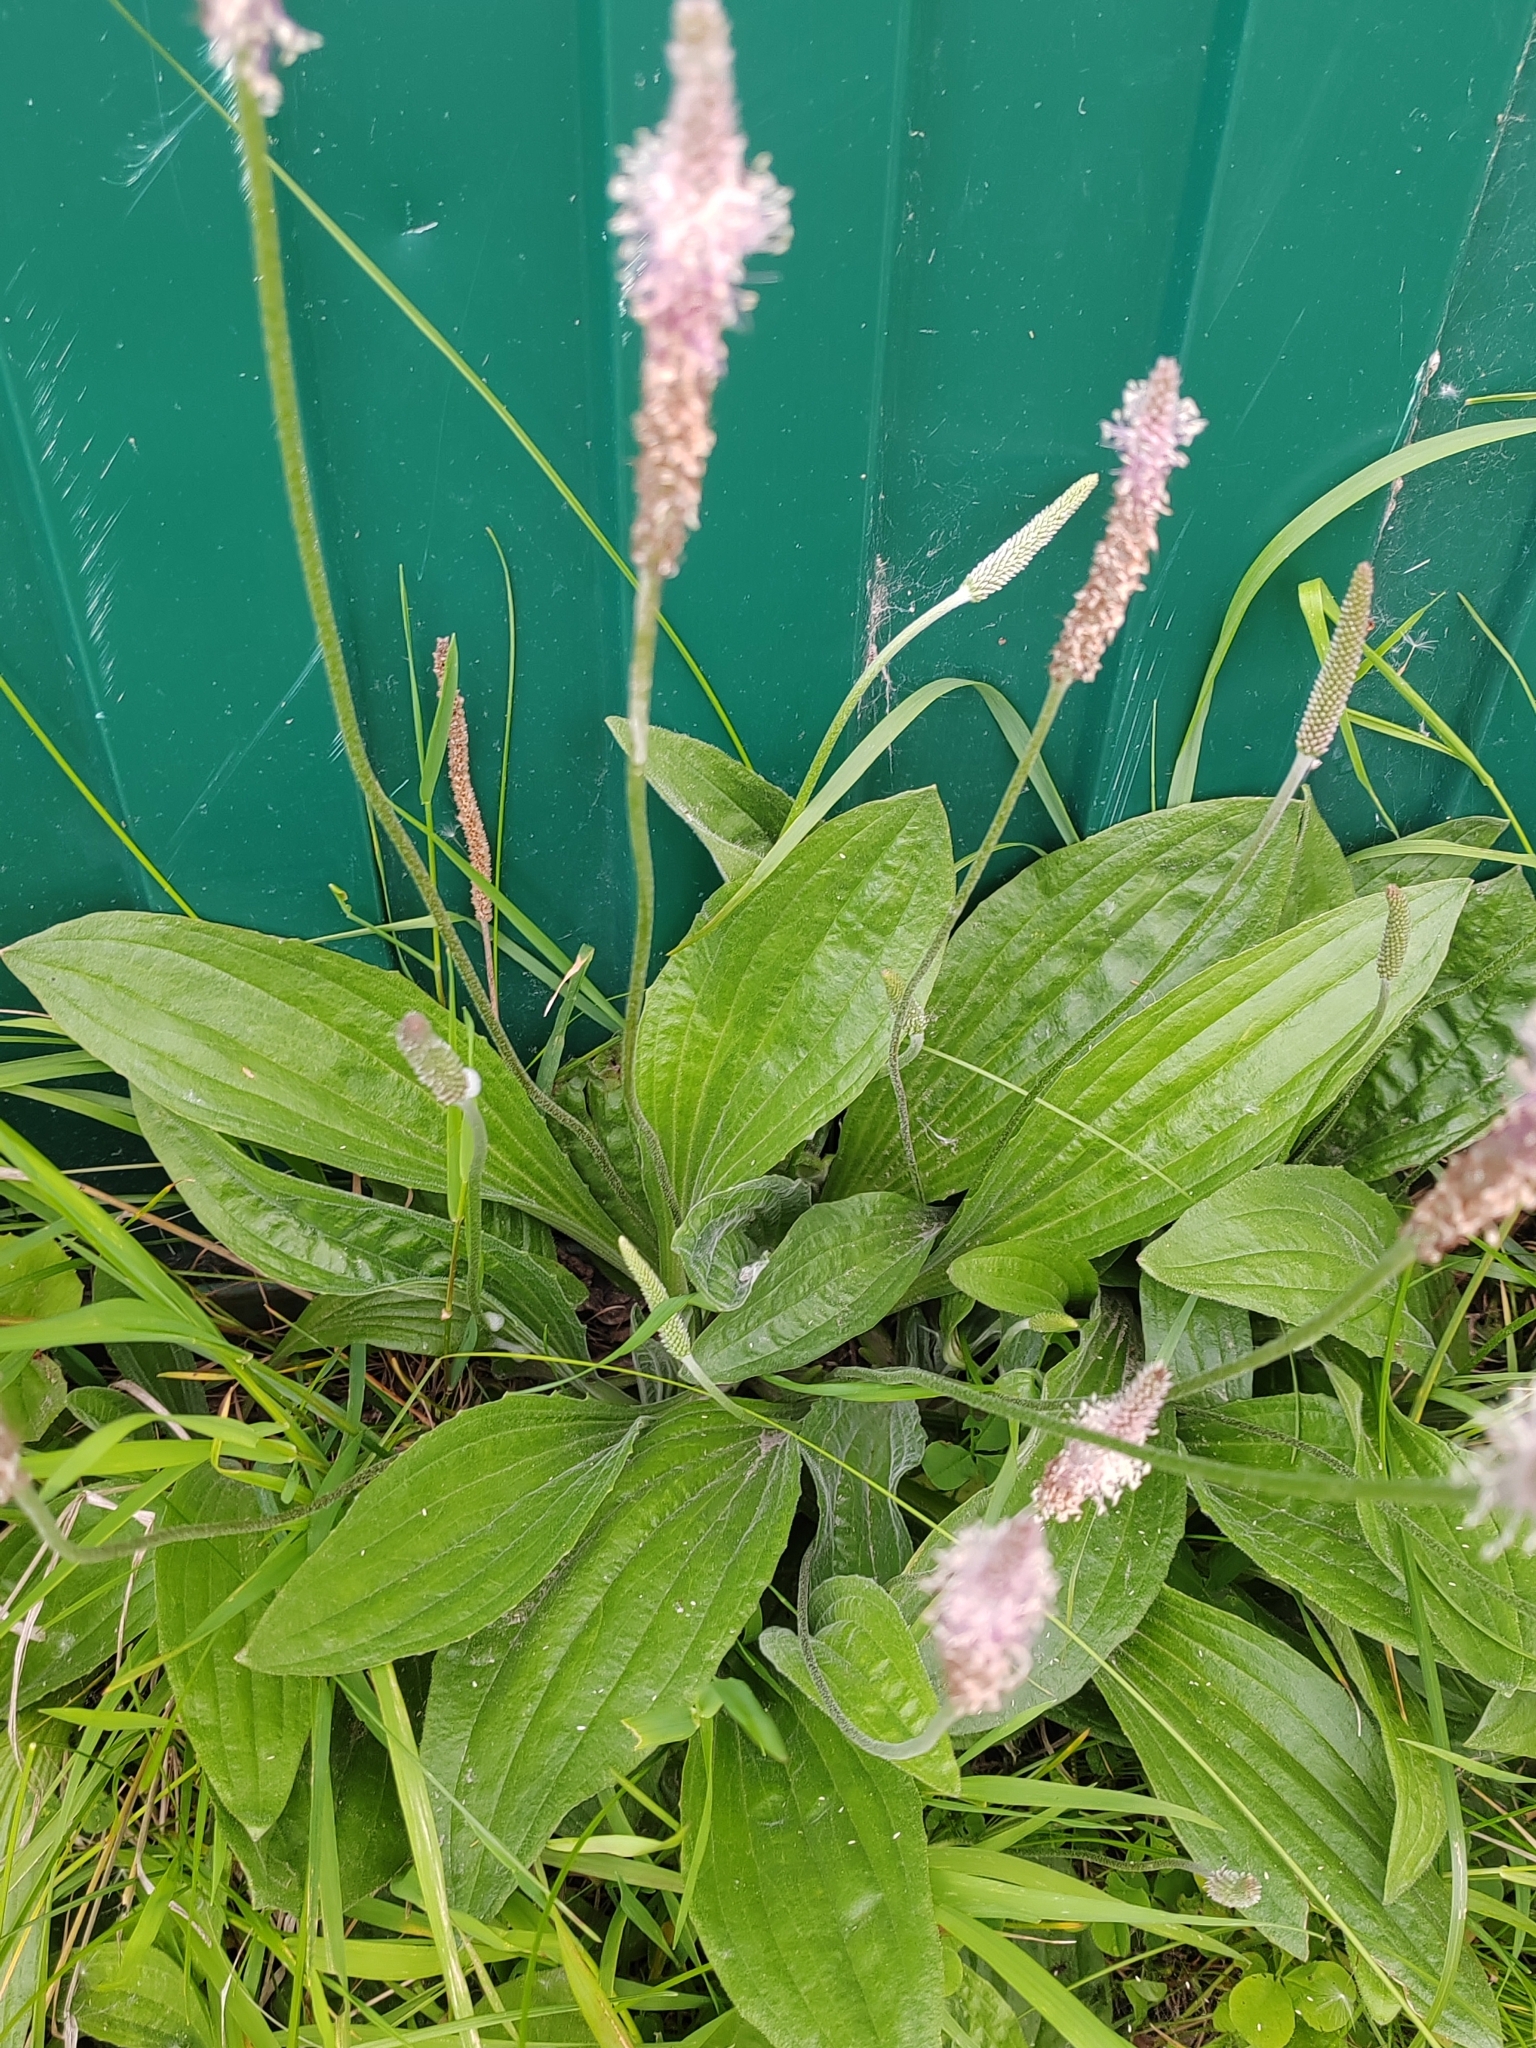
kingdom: Plantae
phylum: Tracheophyta
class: Magnoliopsida
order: Lamiales
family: Plantaginaceae
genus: Plantago
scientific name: Plantago media
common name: Hoary plantain
